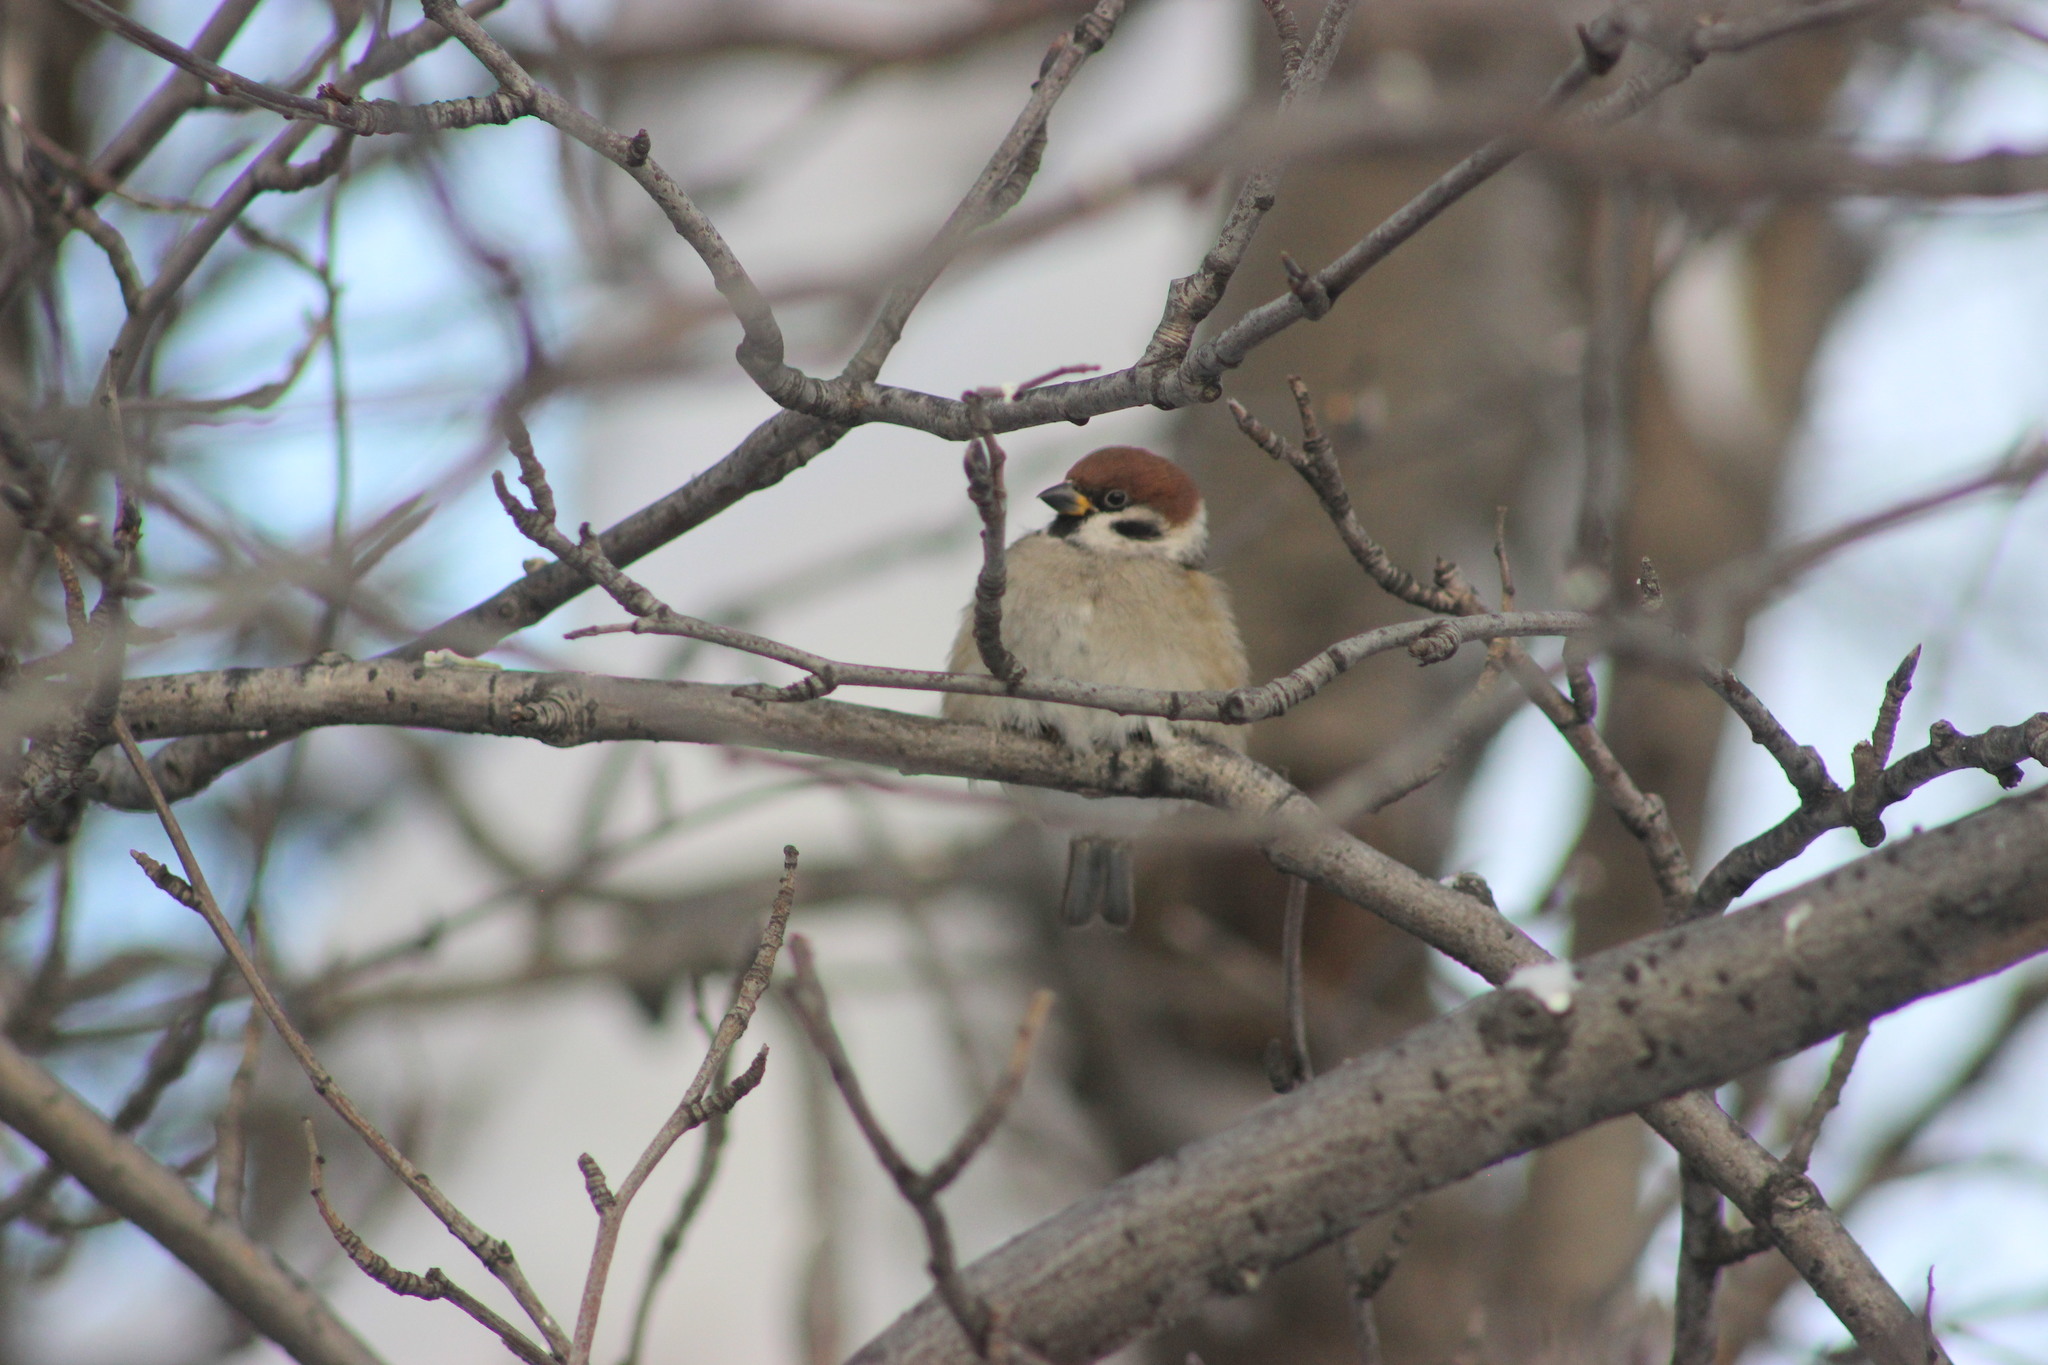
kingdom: Animalia
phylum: Chordata
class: Aves
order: Passeriformes
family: Passeridae
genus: Passer
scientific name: Passer montanus
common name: Eurasian tree sparrow
